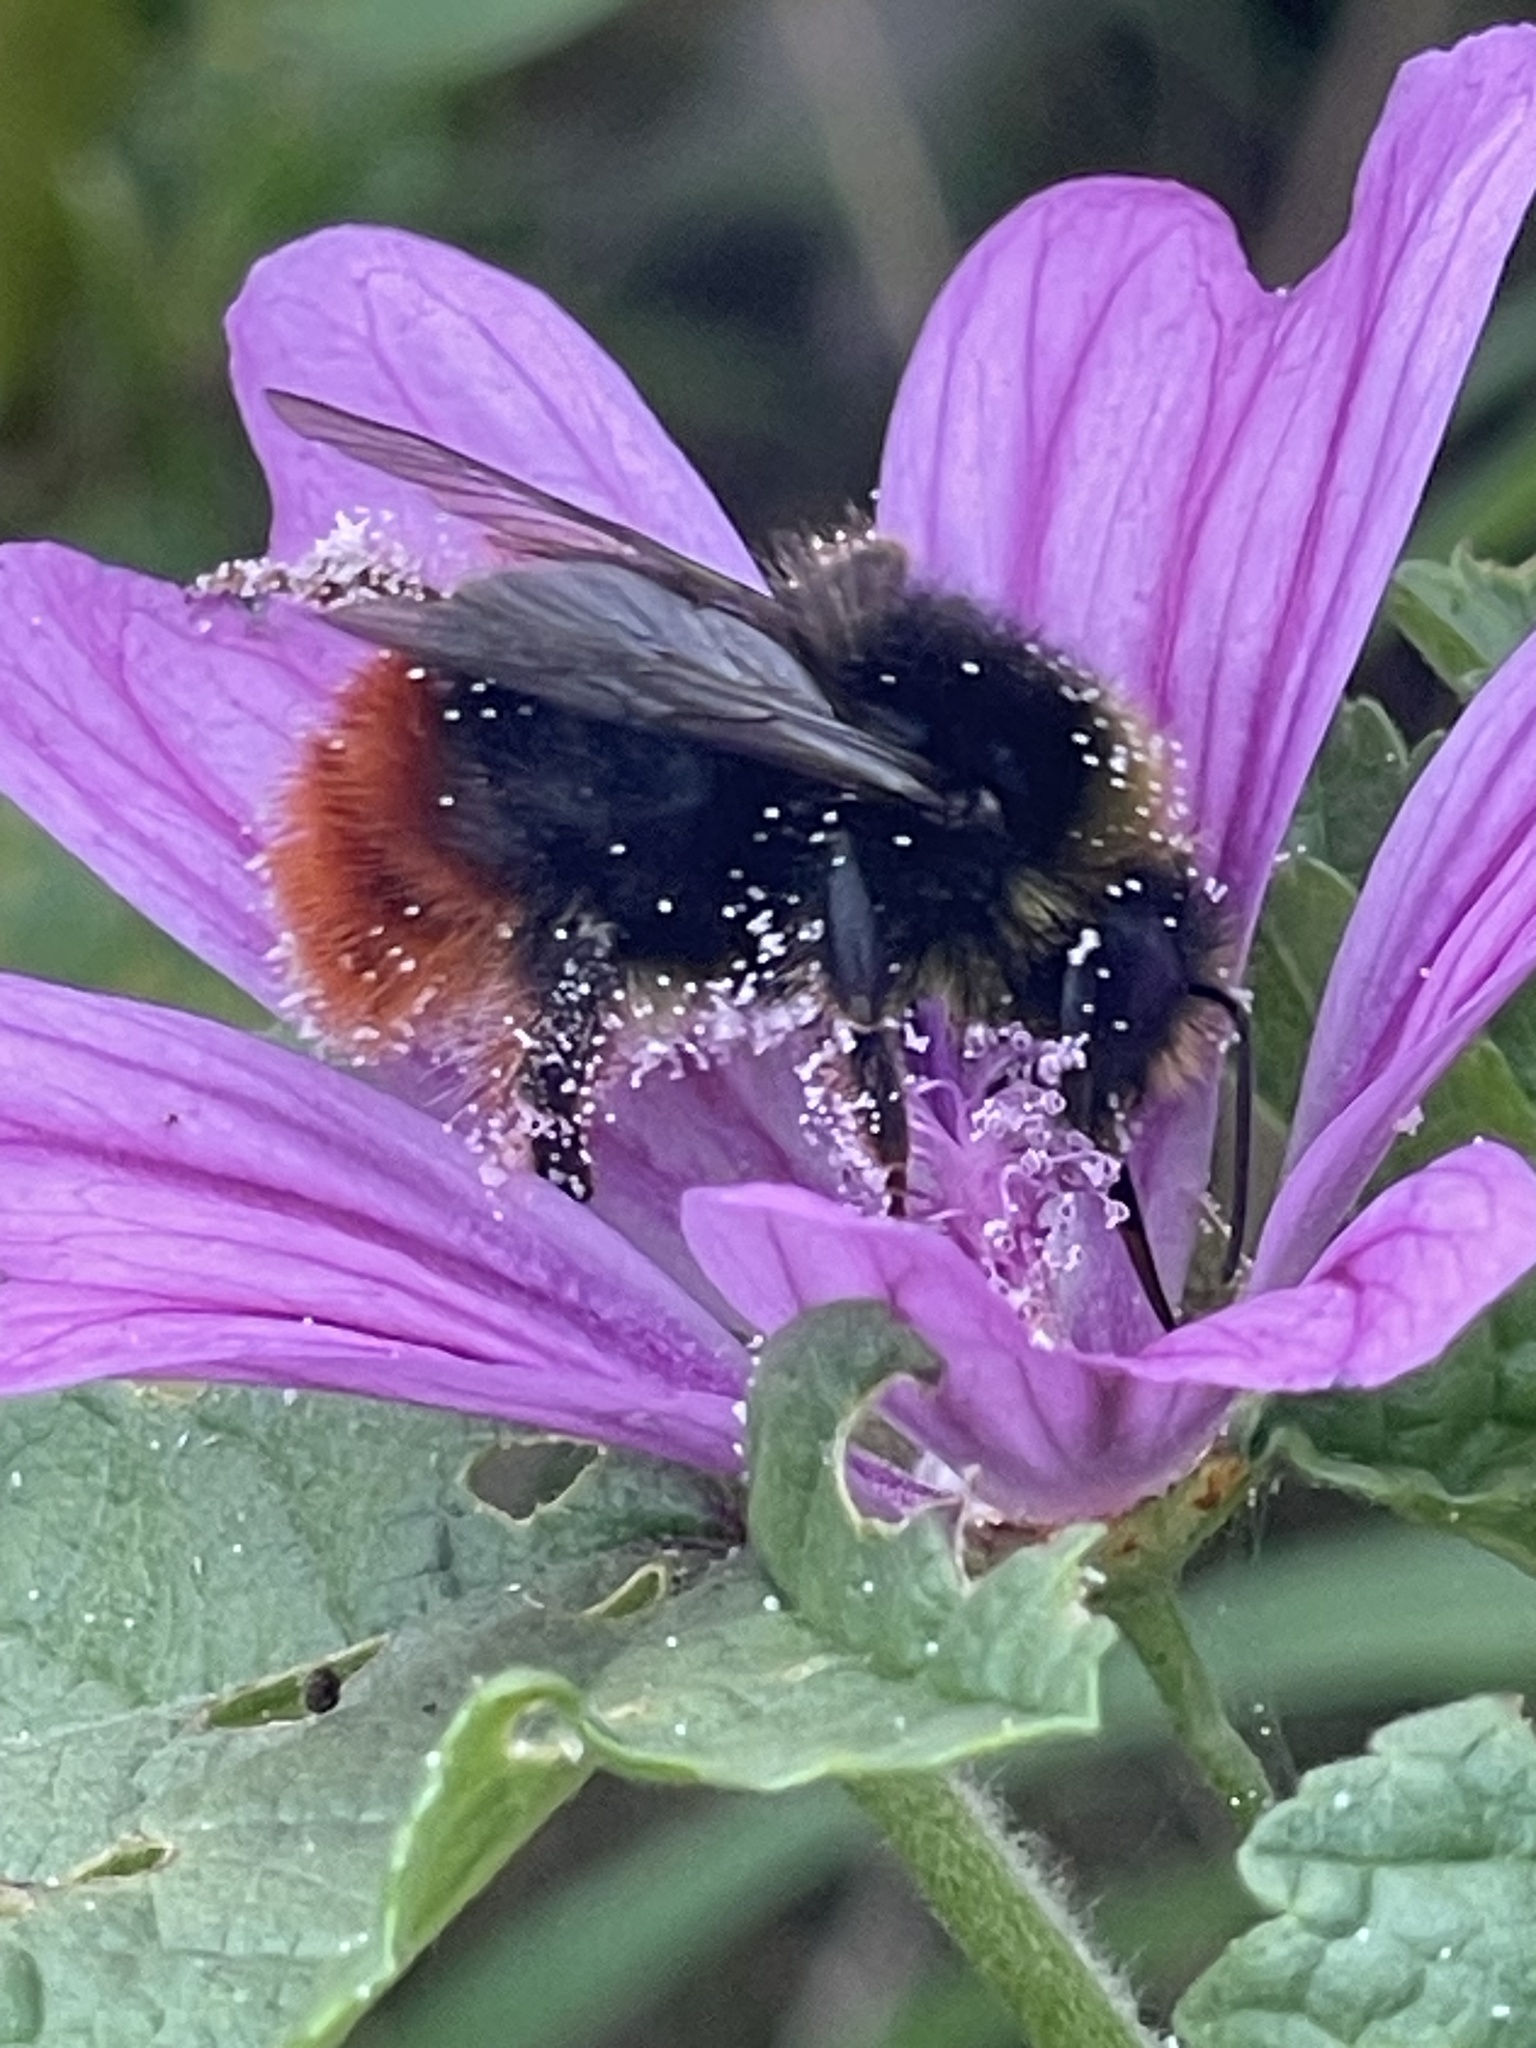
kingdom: Animalia
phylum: Arthropoda
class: Insecta
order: Hymenoptera
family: Apidae
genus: Bombus
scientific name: Bombus lapidarius
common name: Large red-tailed humble-bee
